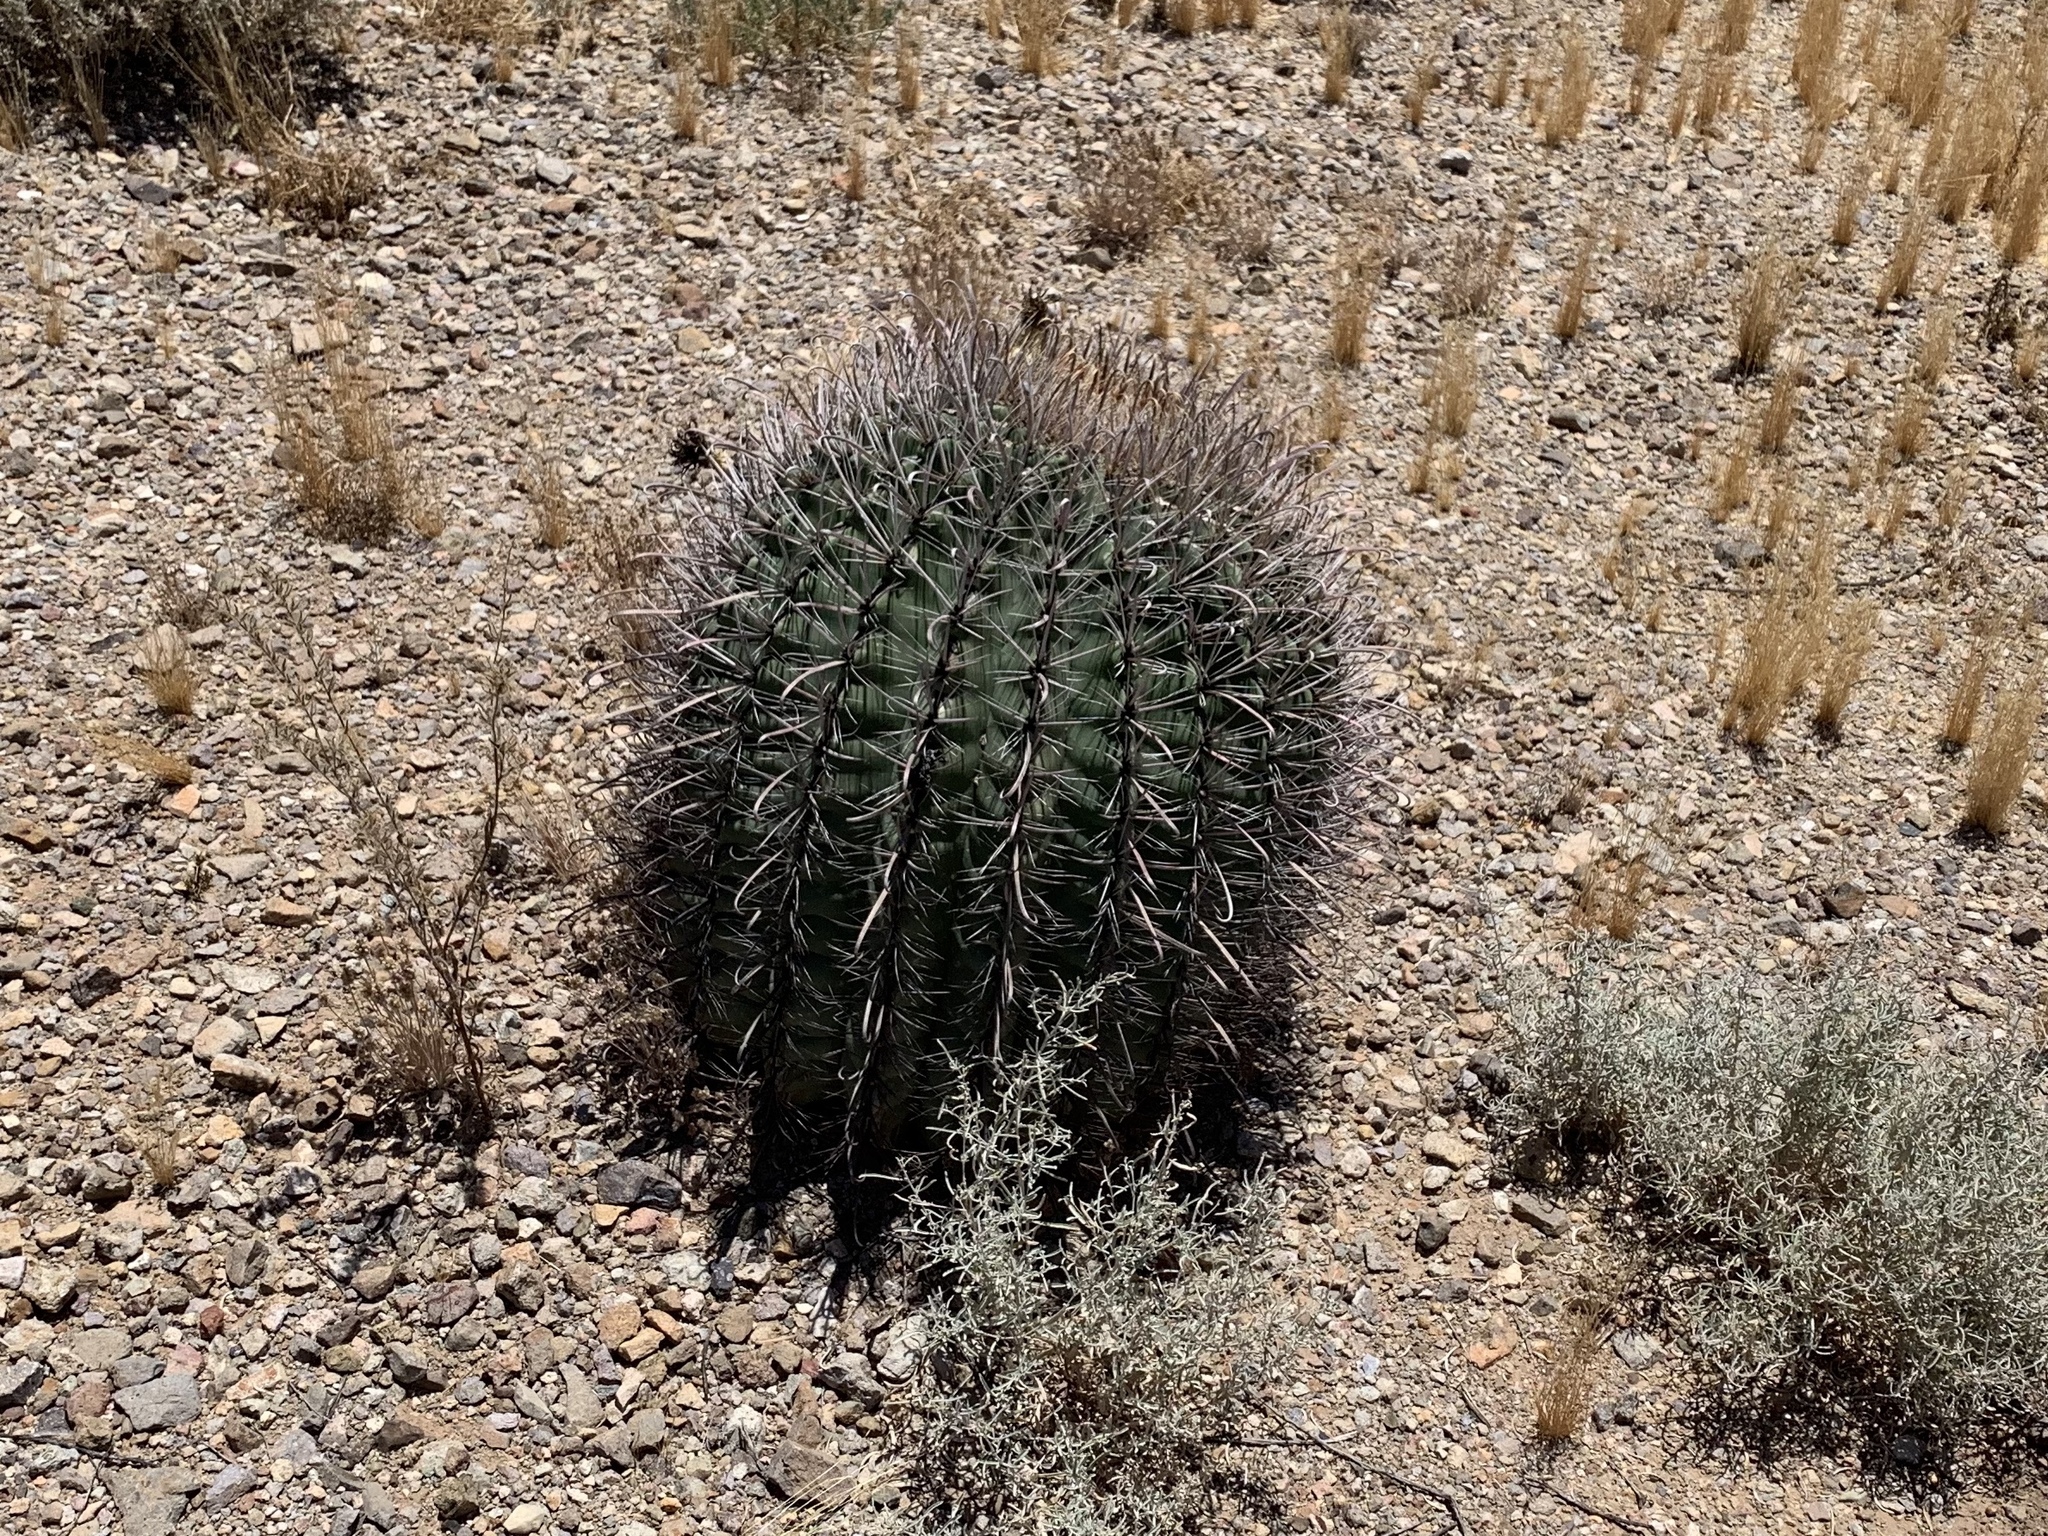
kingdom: Plantae
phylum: Tracheophyta
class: Magnoliopsida
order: Caryophyllales
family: Cactaceae
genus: Ferocactus
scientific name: Ferocactus wislizeni
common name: Candy barrel cactus
